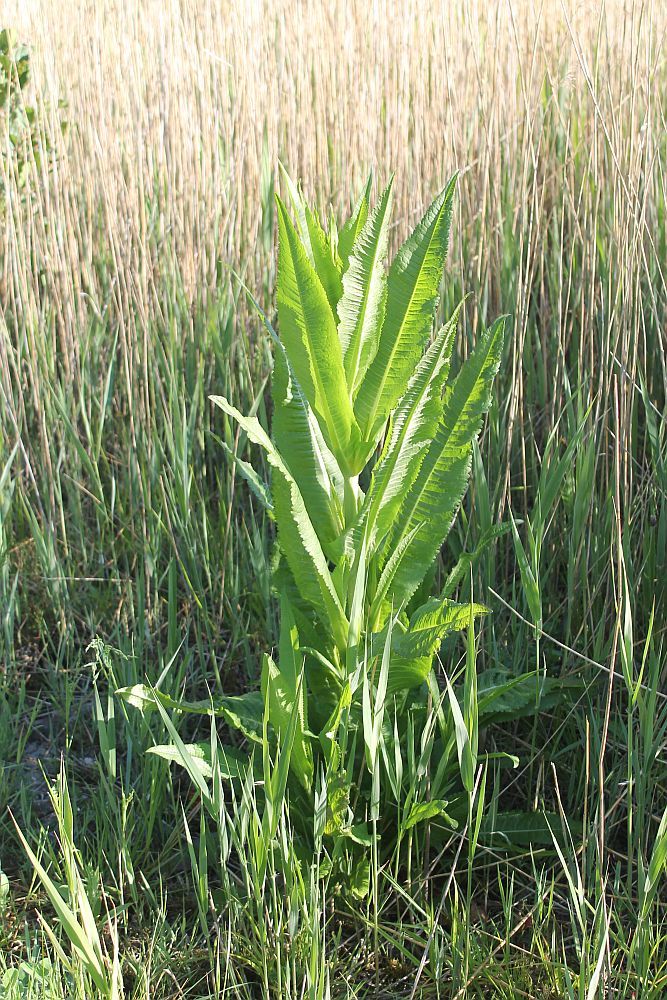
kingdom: Plantae
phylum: Tracheophyta
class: Magnoliopsida
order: Dipsacales
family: Caprifoliaceae
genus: Dipsacus
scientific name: Dipsacus fullonum
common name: Teasel
